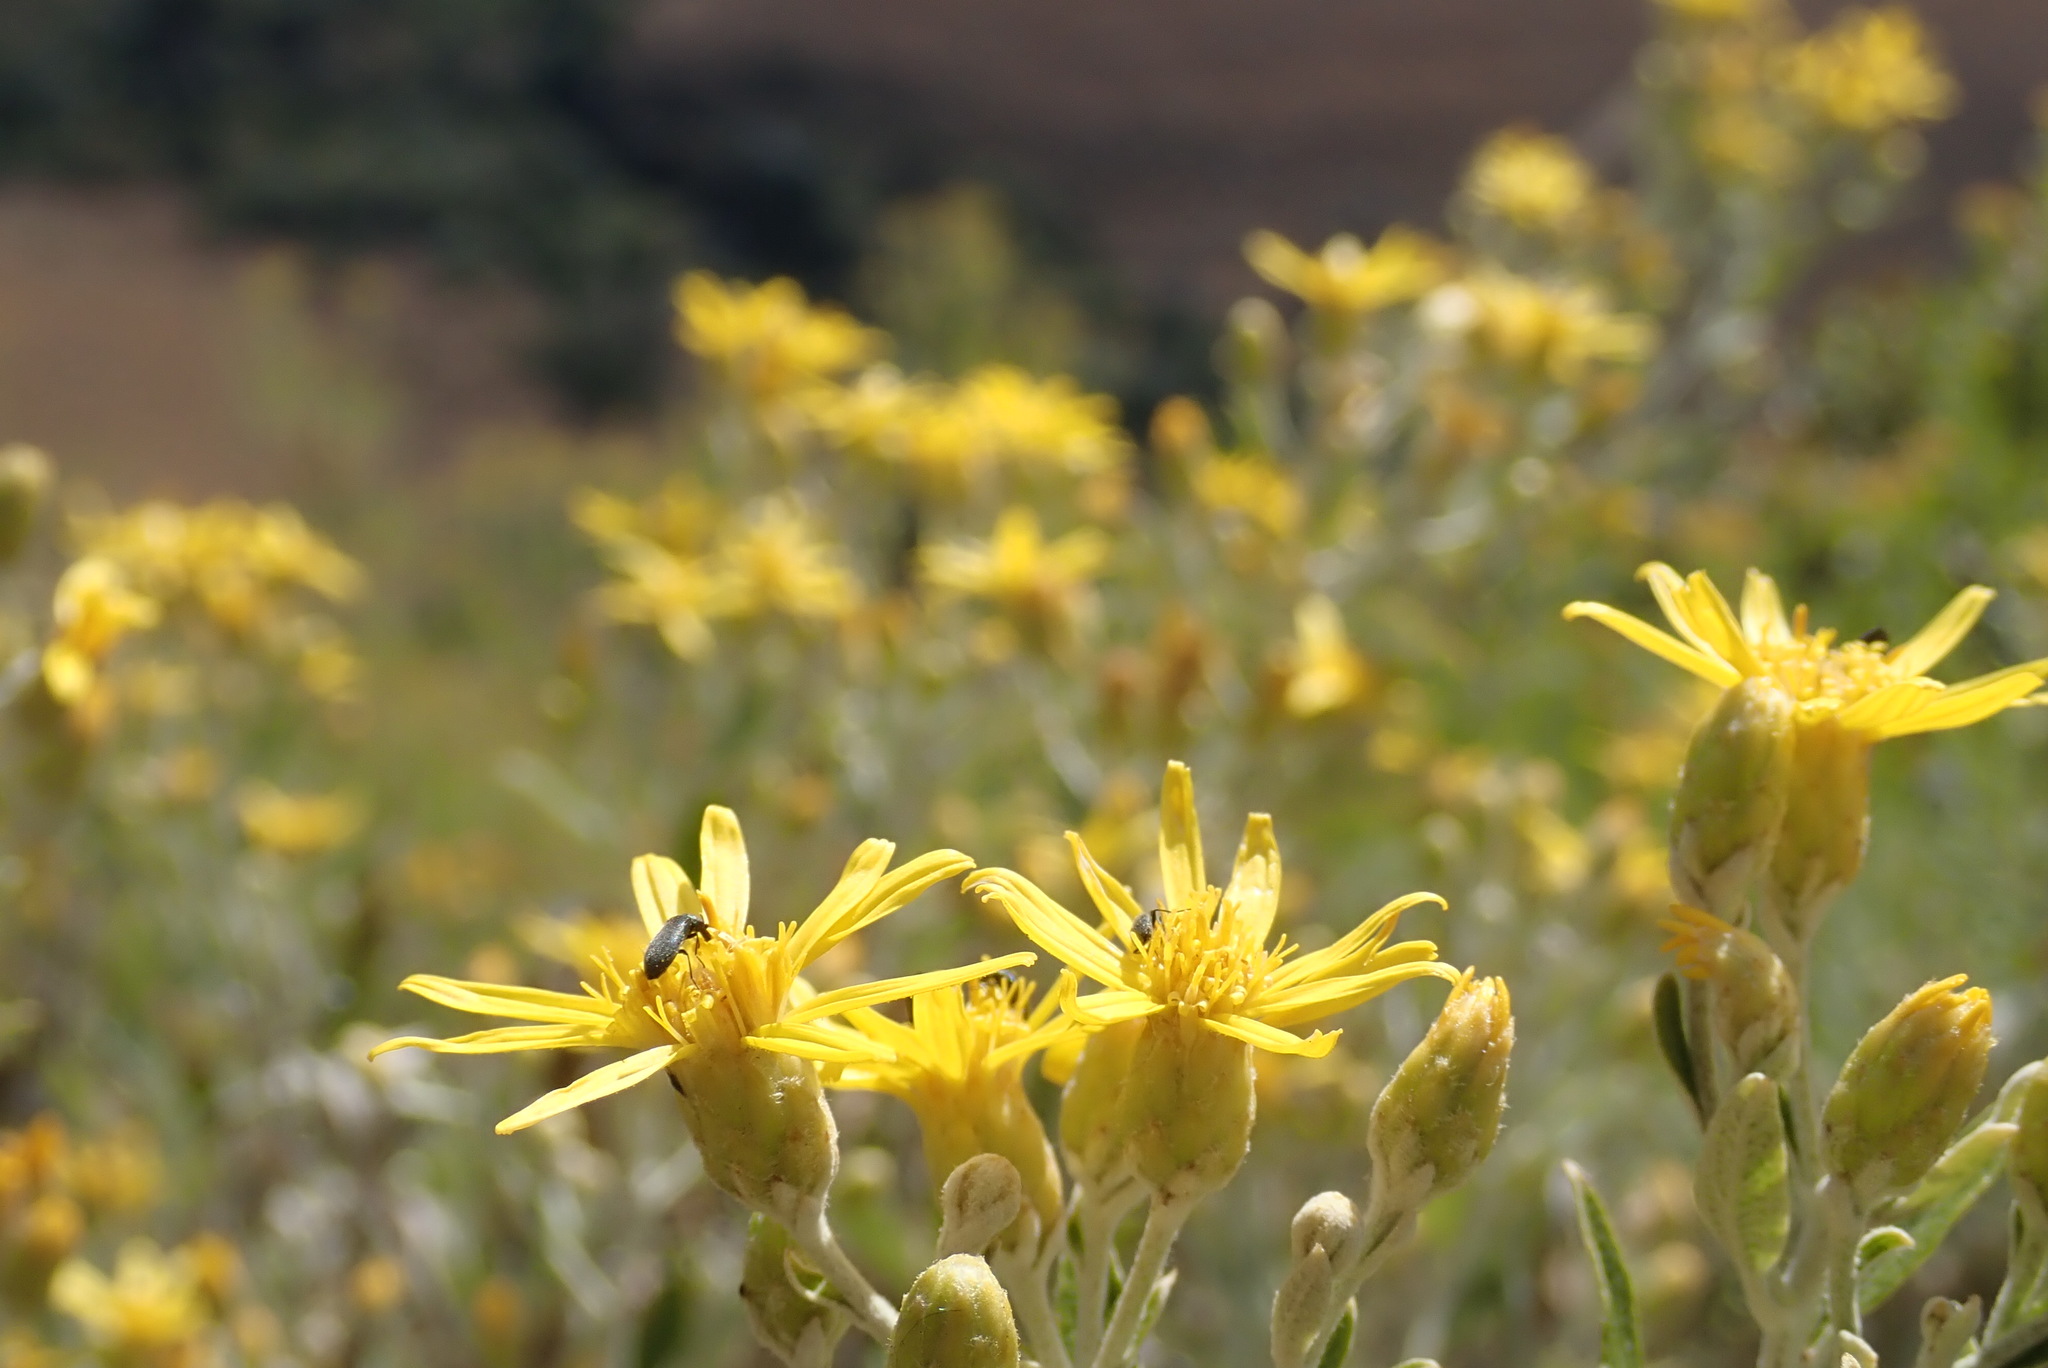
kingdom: Plantae
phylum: Tracheophyta
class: Magnoliopsida
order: Asterales
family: Asteraceae
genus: Anisopappus
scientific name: Anisopappus smutsii
